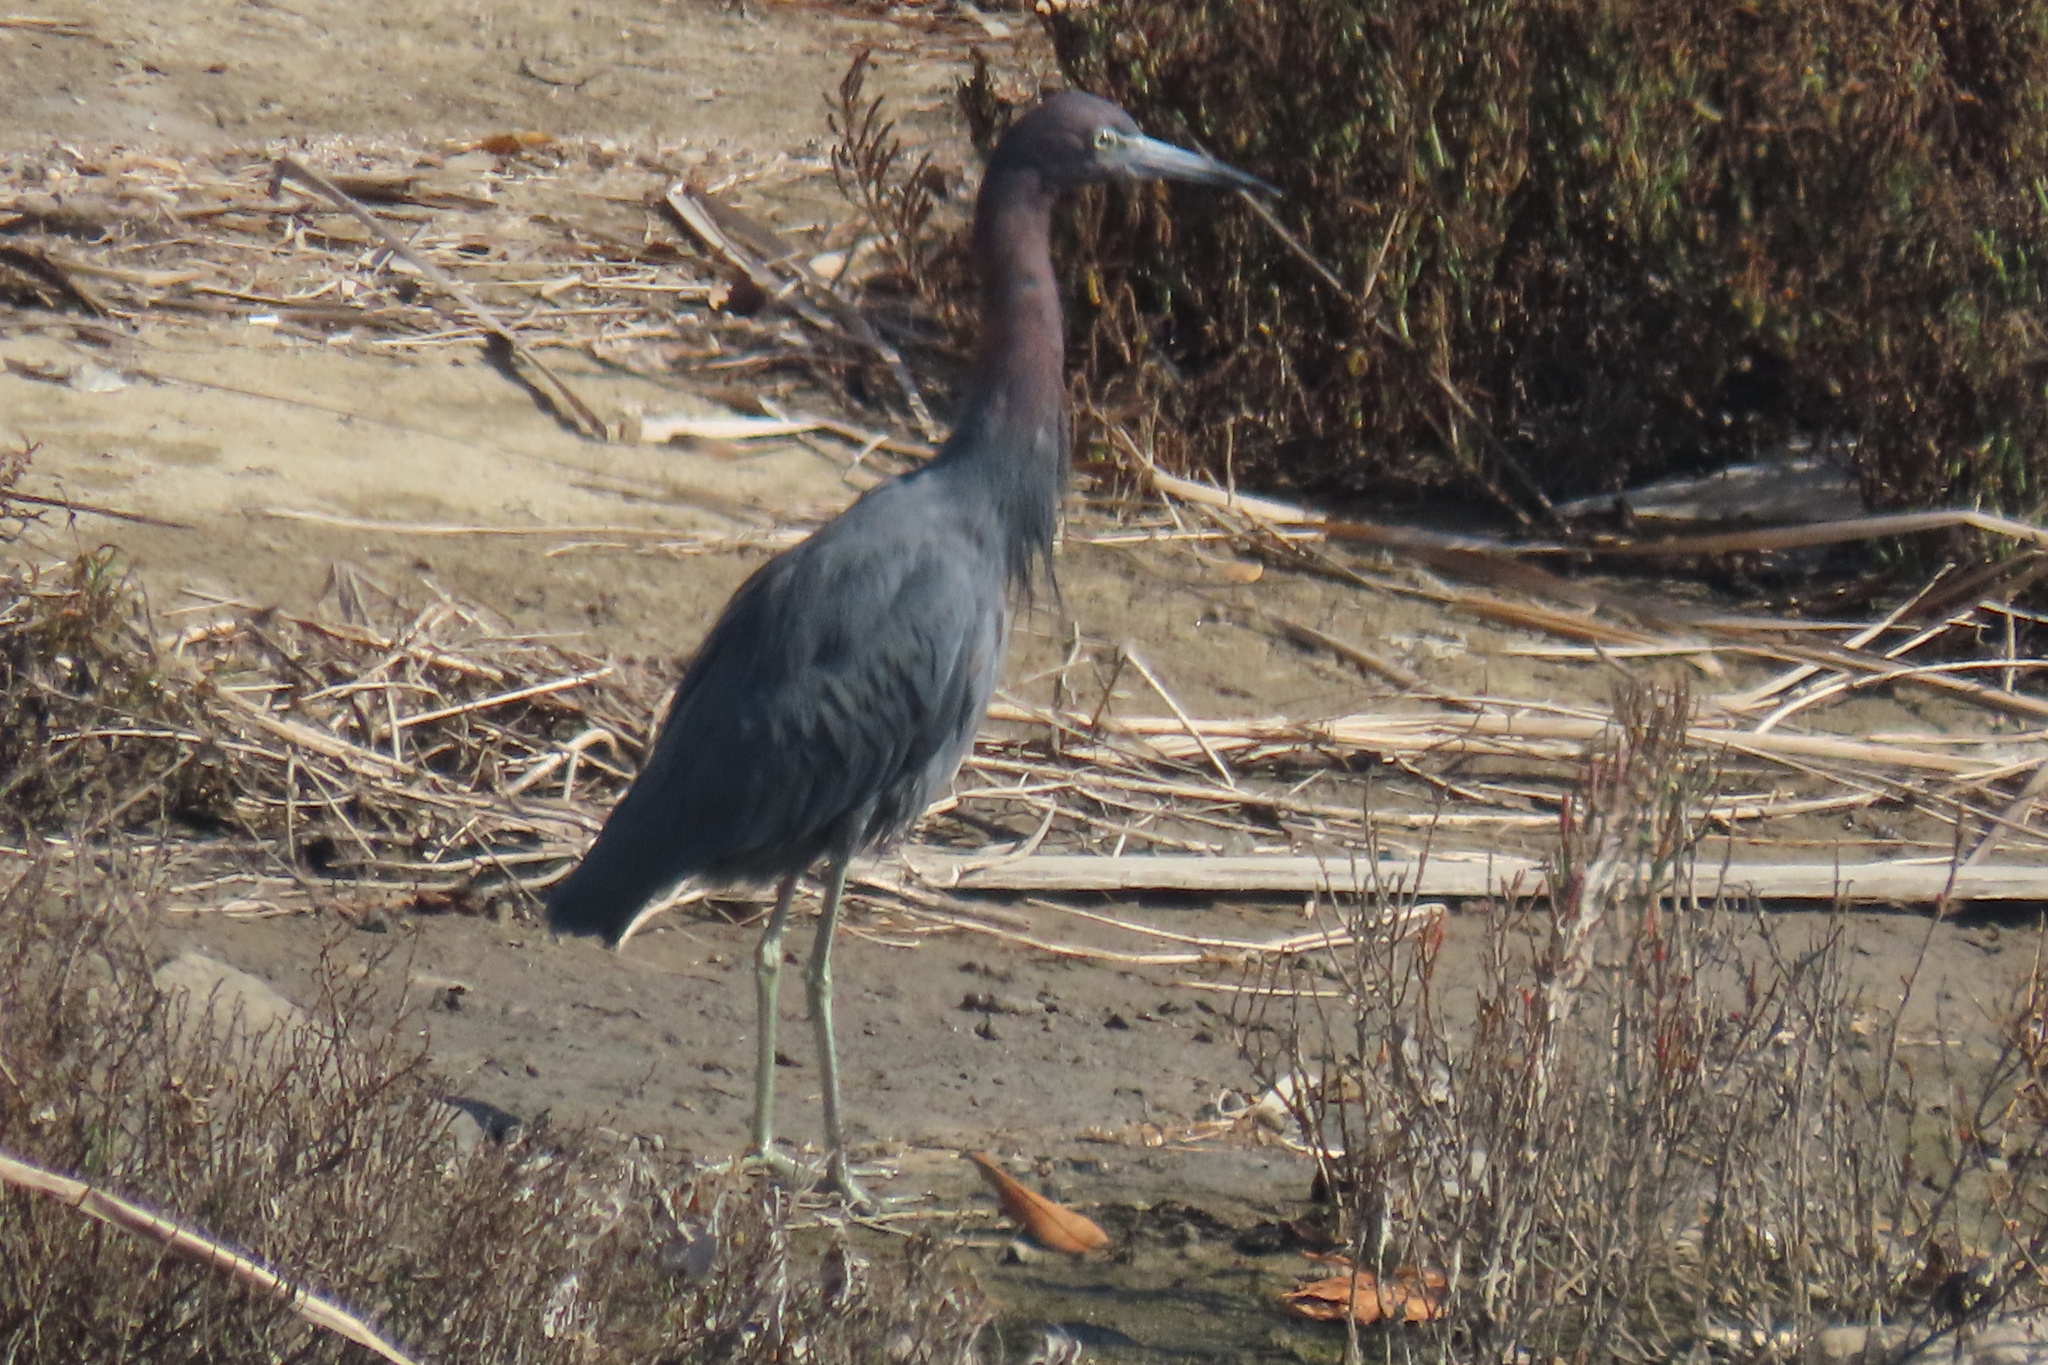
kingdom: Animalia
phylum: Chordata
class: Aves
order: Pelecaniformes
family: Ardeidae
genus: Egretta
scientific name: Egretta caerulea
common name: Little blue heron
